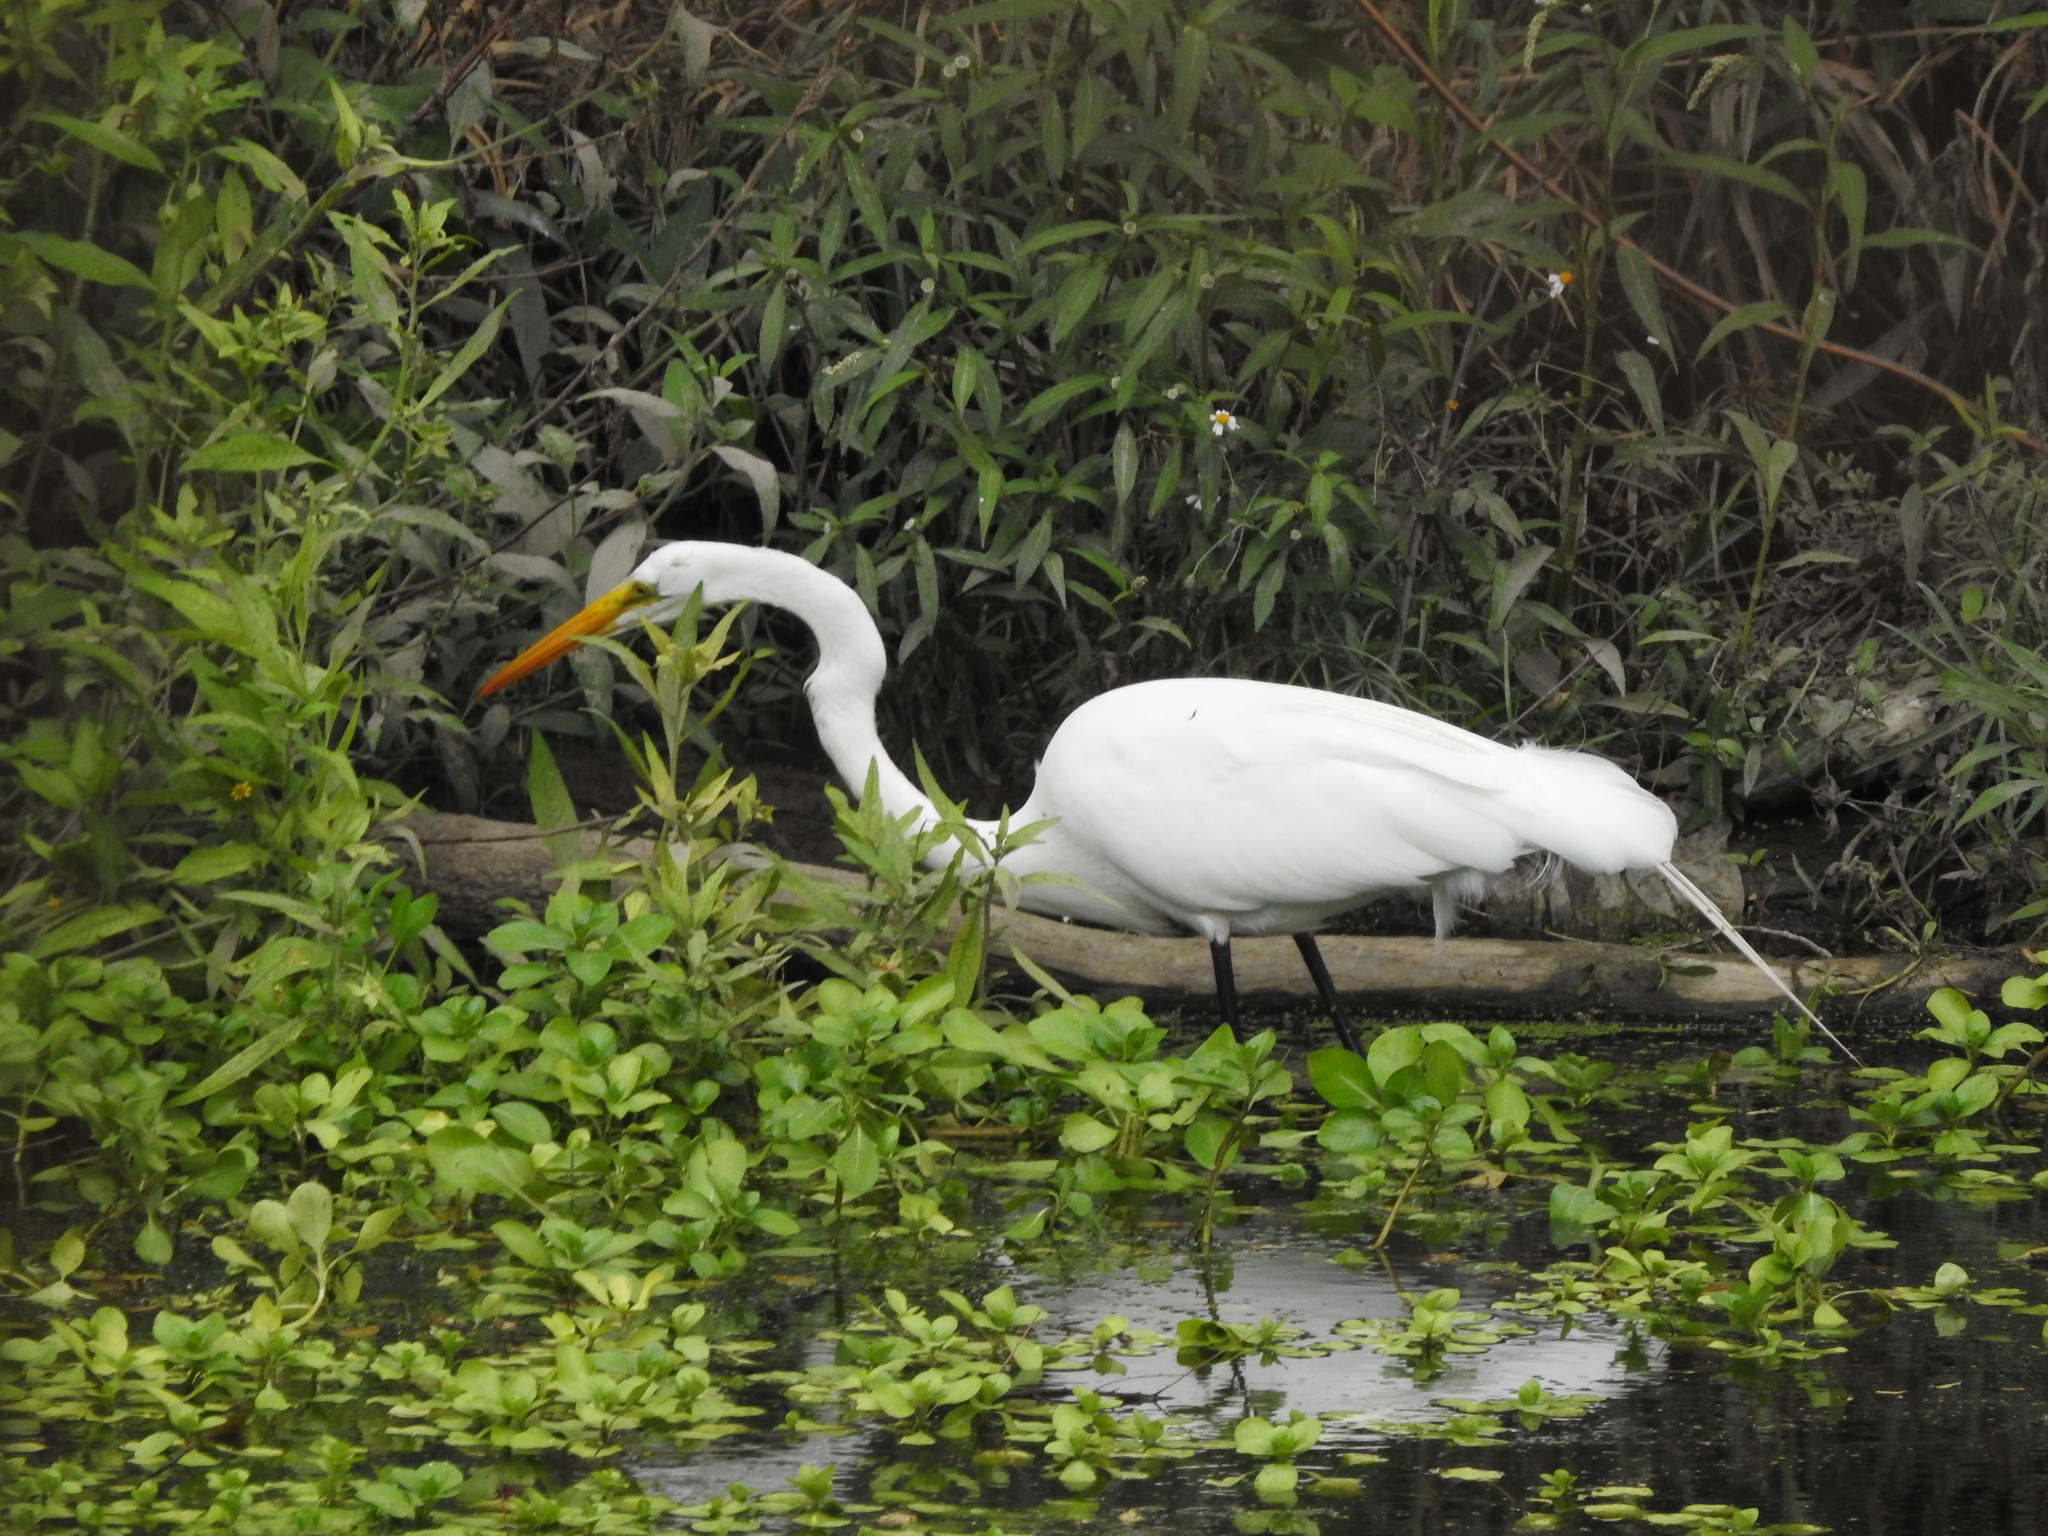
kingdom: Animalia
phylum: Chordata
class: Aves
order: Pelecaniformes
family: Ardeidae
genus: Ardea
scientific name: Ardea alba
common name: Great egret
